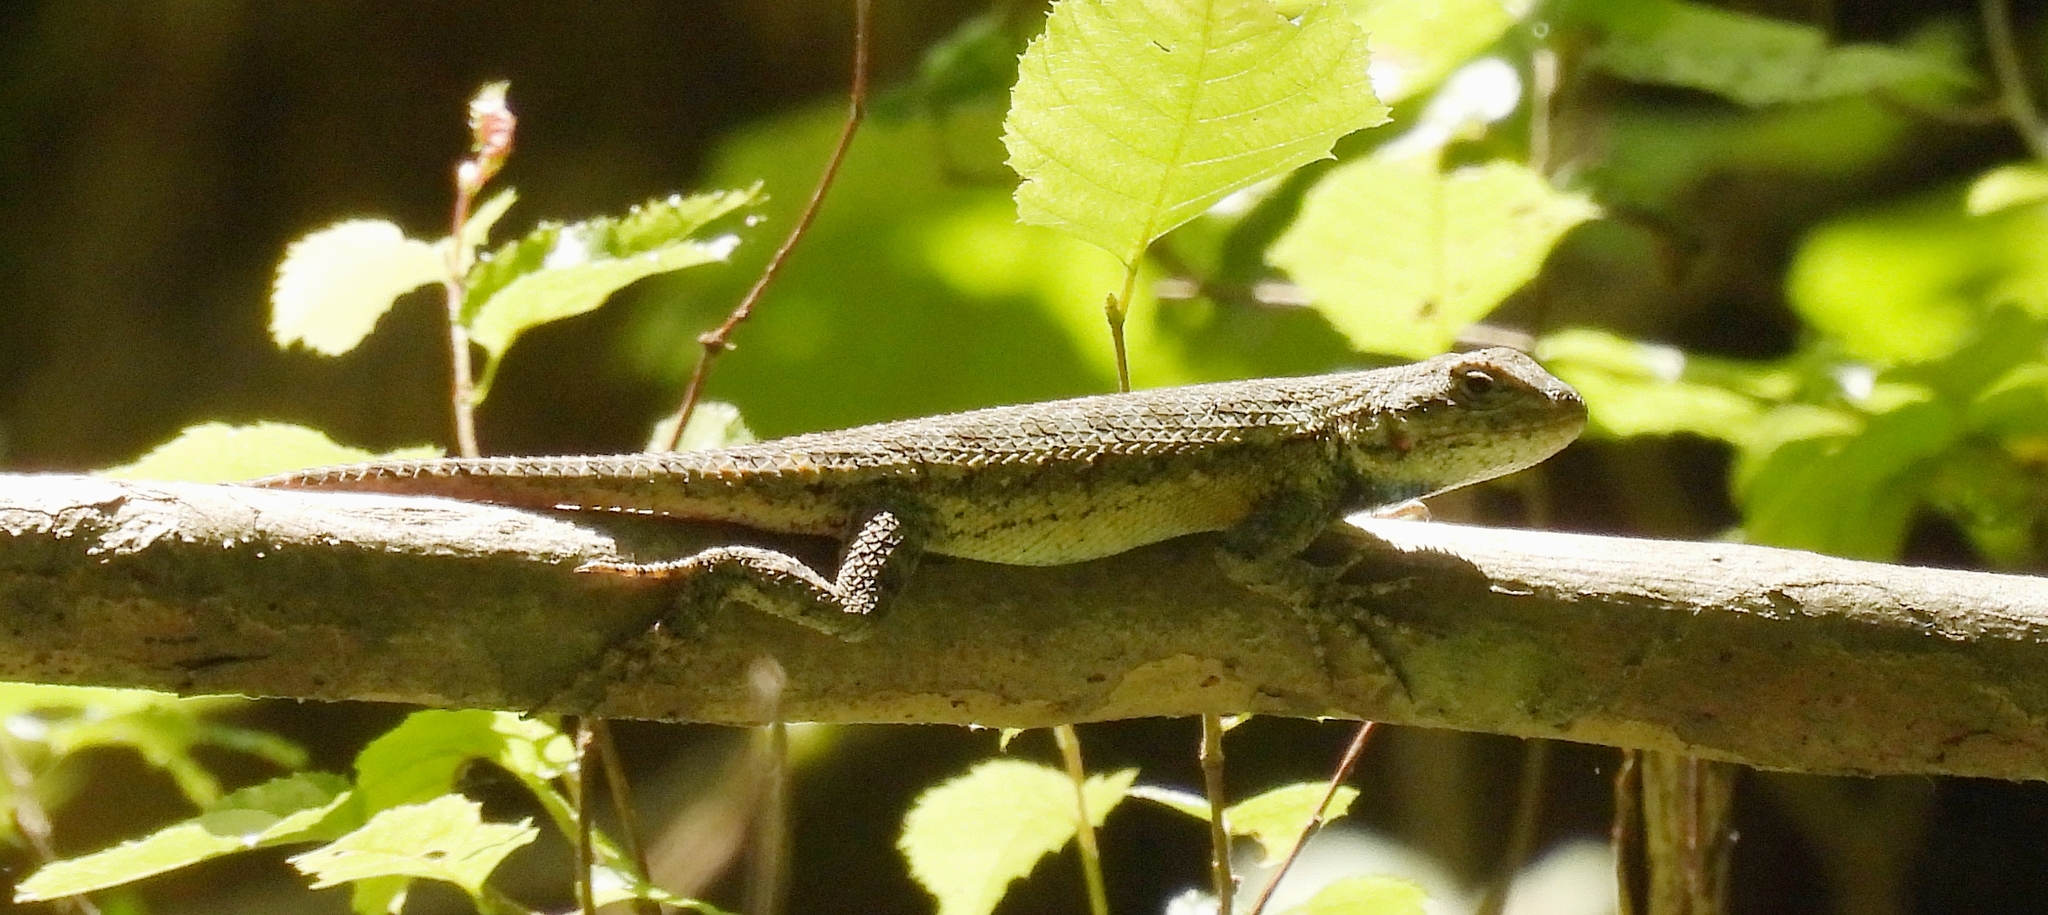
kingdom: Animalia
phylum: Chordata
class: Squamata
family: Phrynosomatidae
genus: Sceloporus
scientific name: Sceloporus undulatus
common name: Eastern fence lizard
